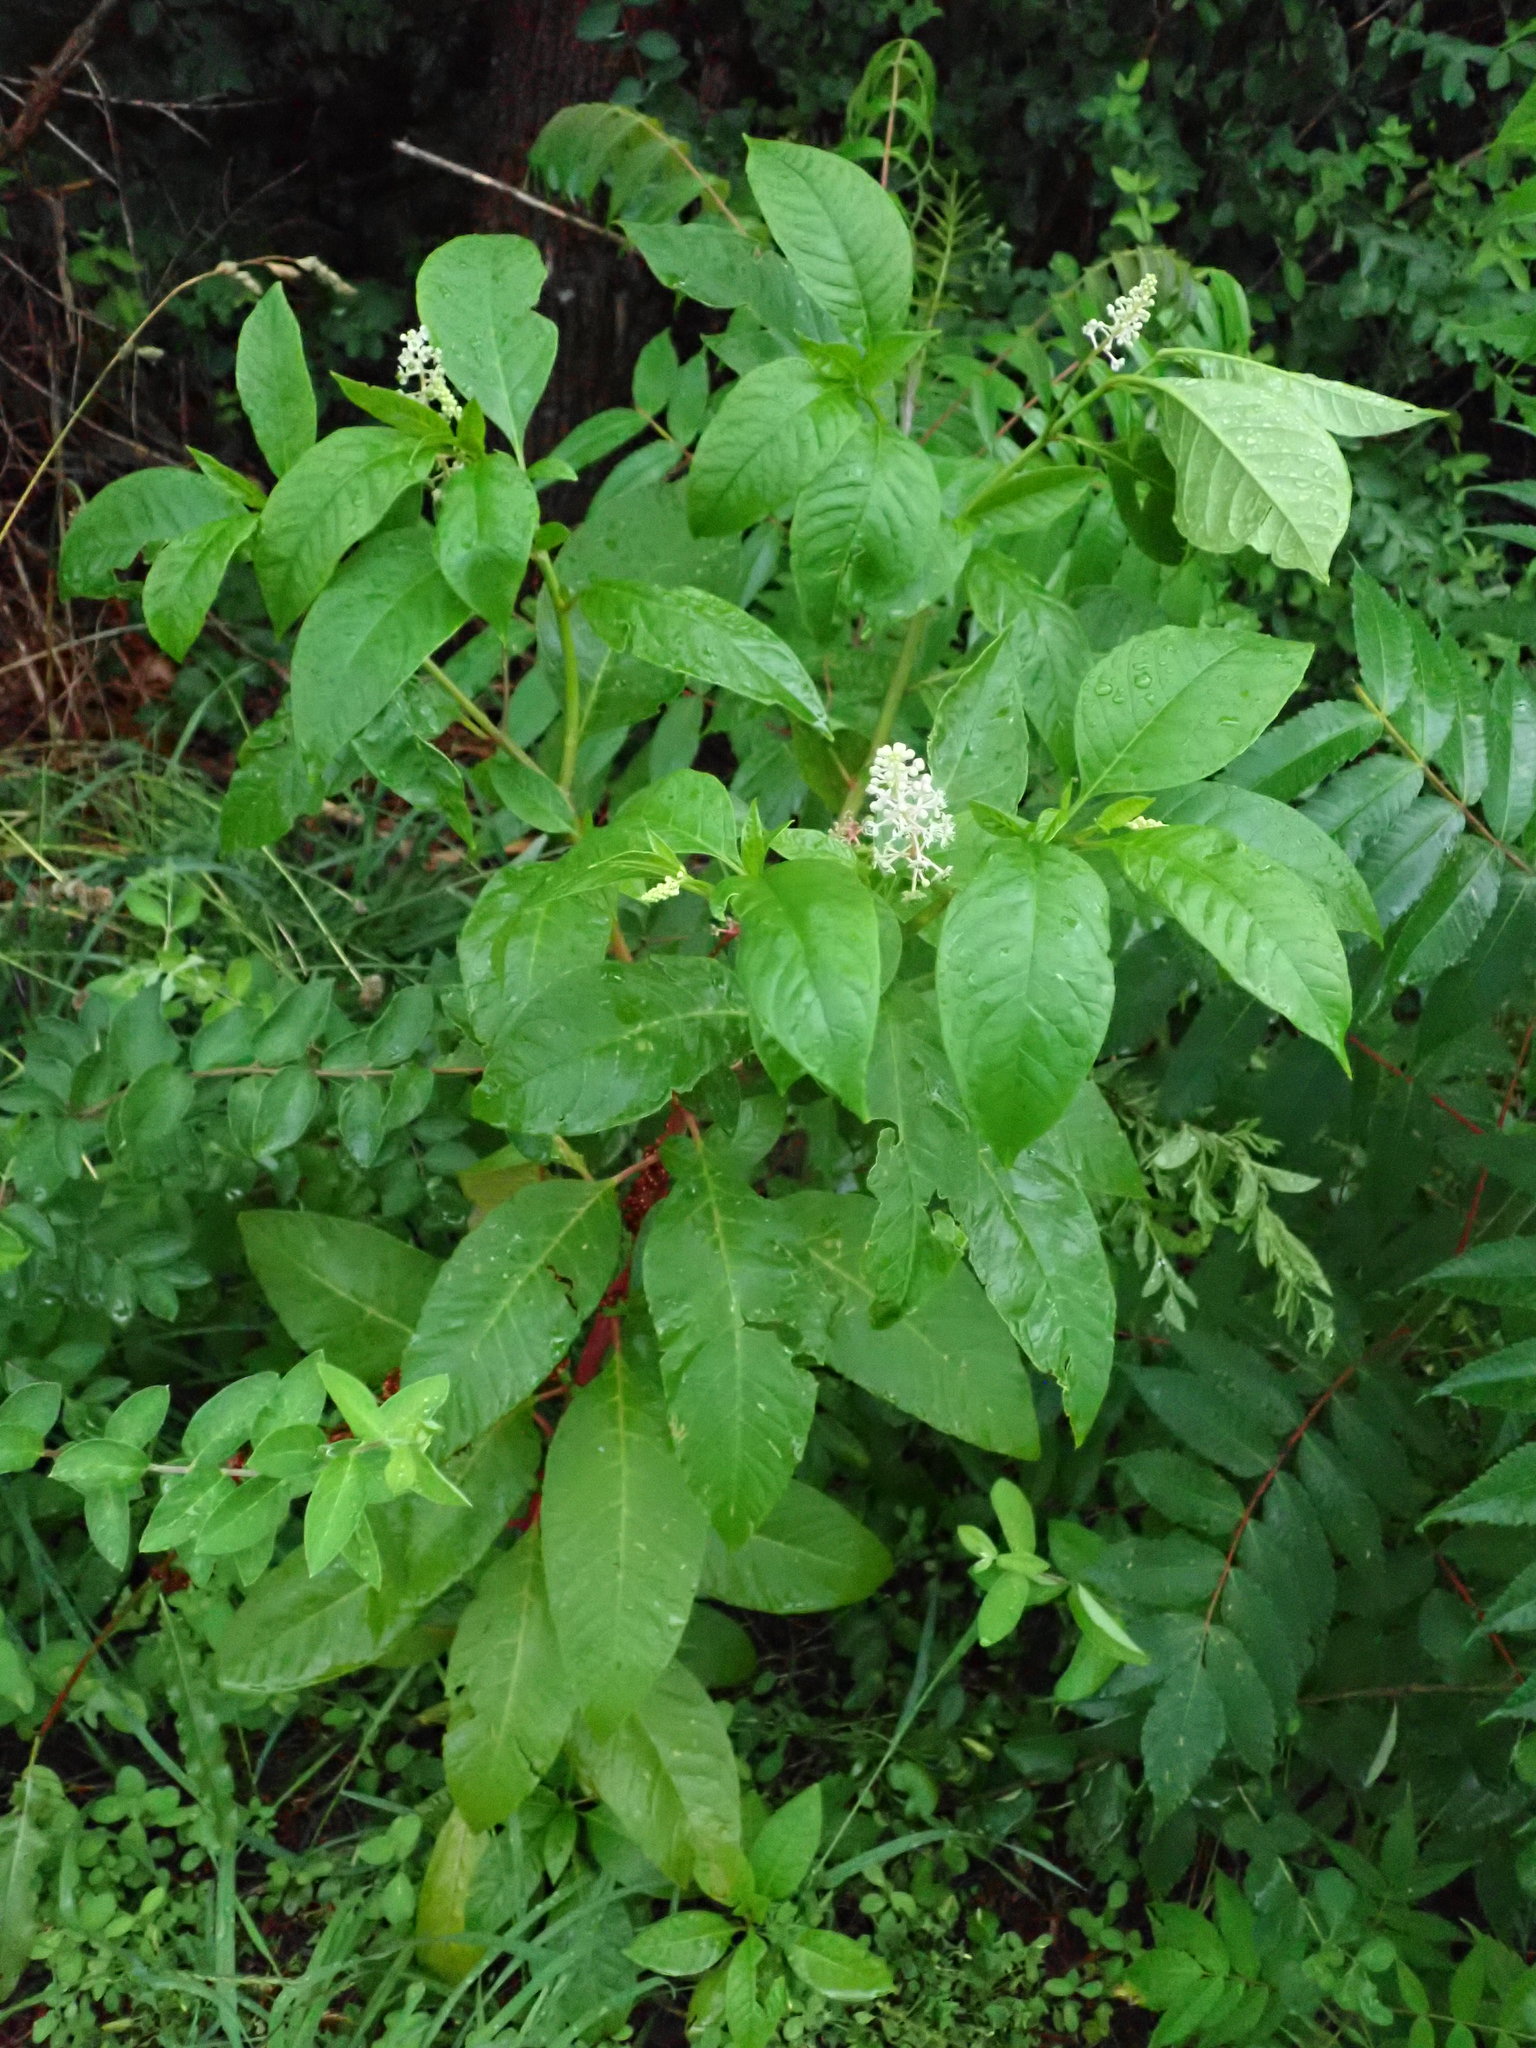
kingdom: Plantae
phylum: Tracheophyta
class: Magnoliopsida
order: Caryophyllales
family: Phytolaccaceae
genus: Phytolacca
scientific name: Phytolacca americana
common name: American pokeweed
